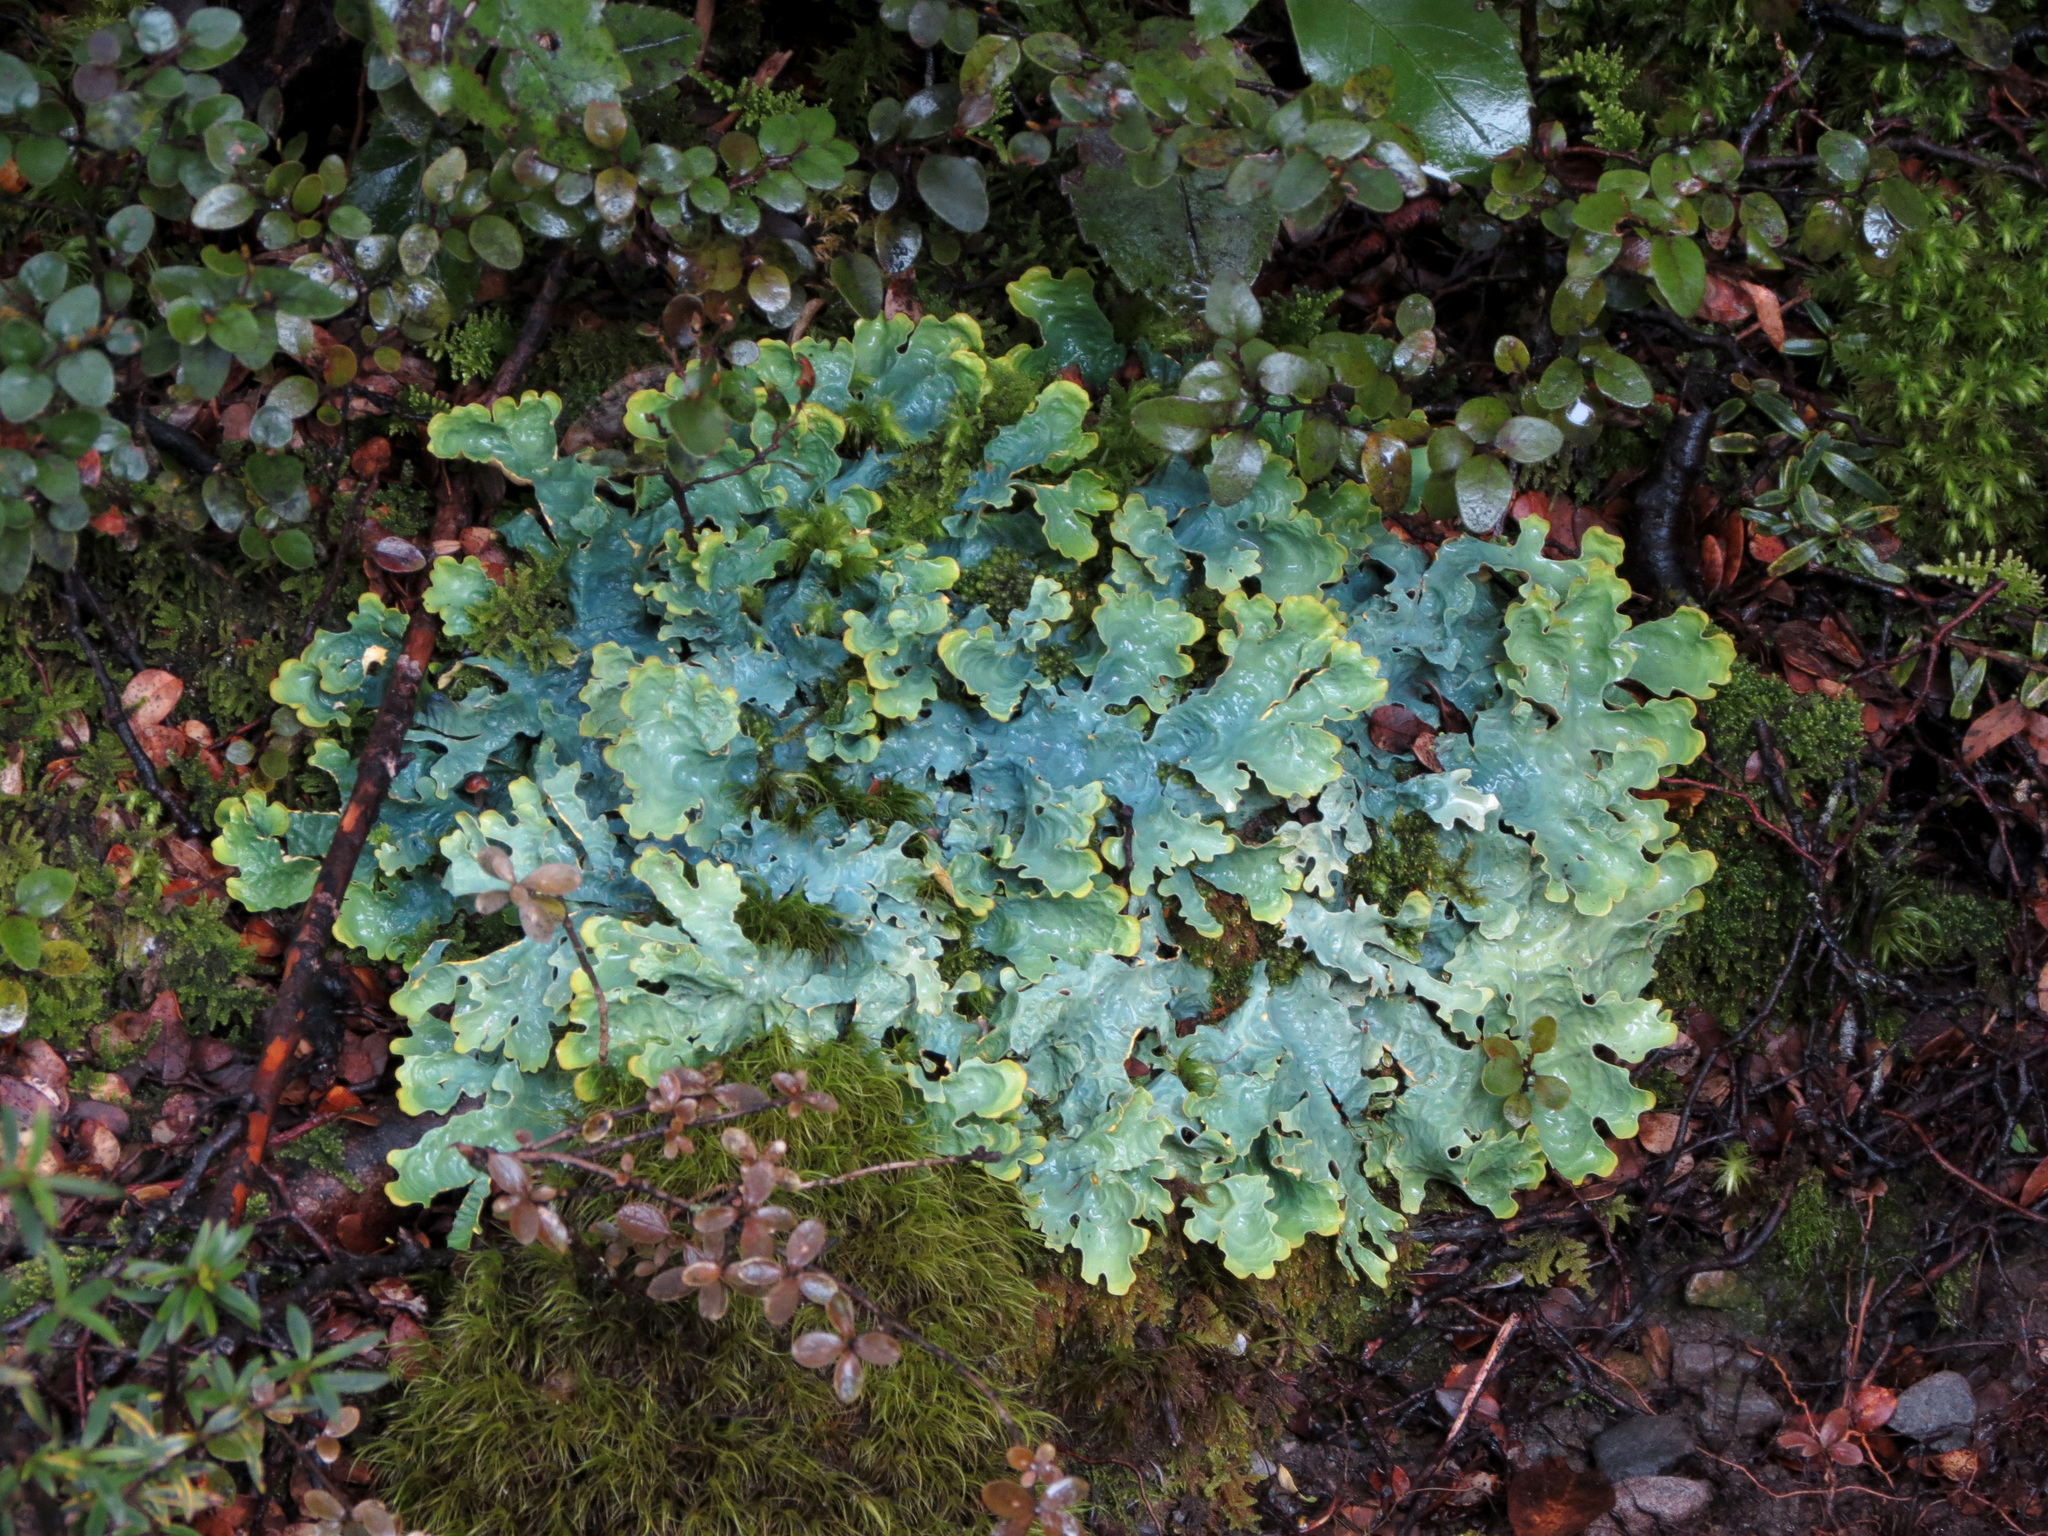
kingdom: Fungi
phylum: Ascomycota
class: Lecanoromycetes
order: Peltigerales
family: Lobariaceae
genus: Podostictina
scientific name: Podostictina degelii
